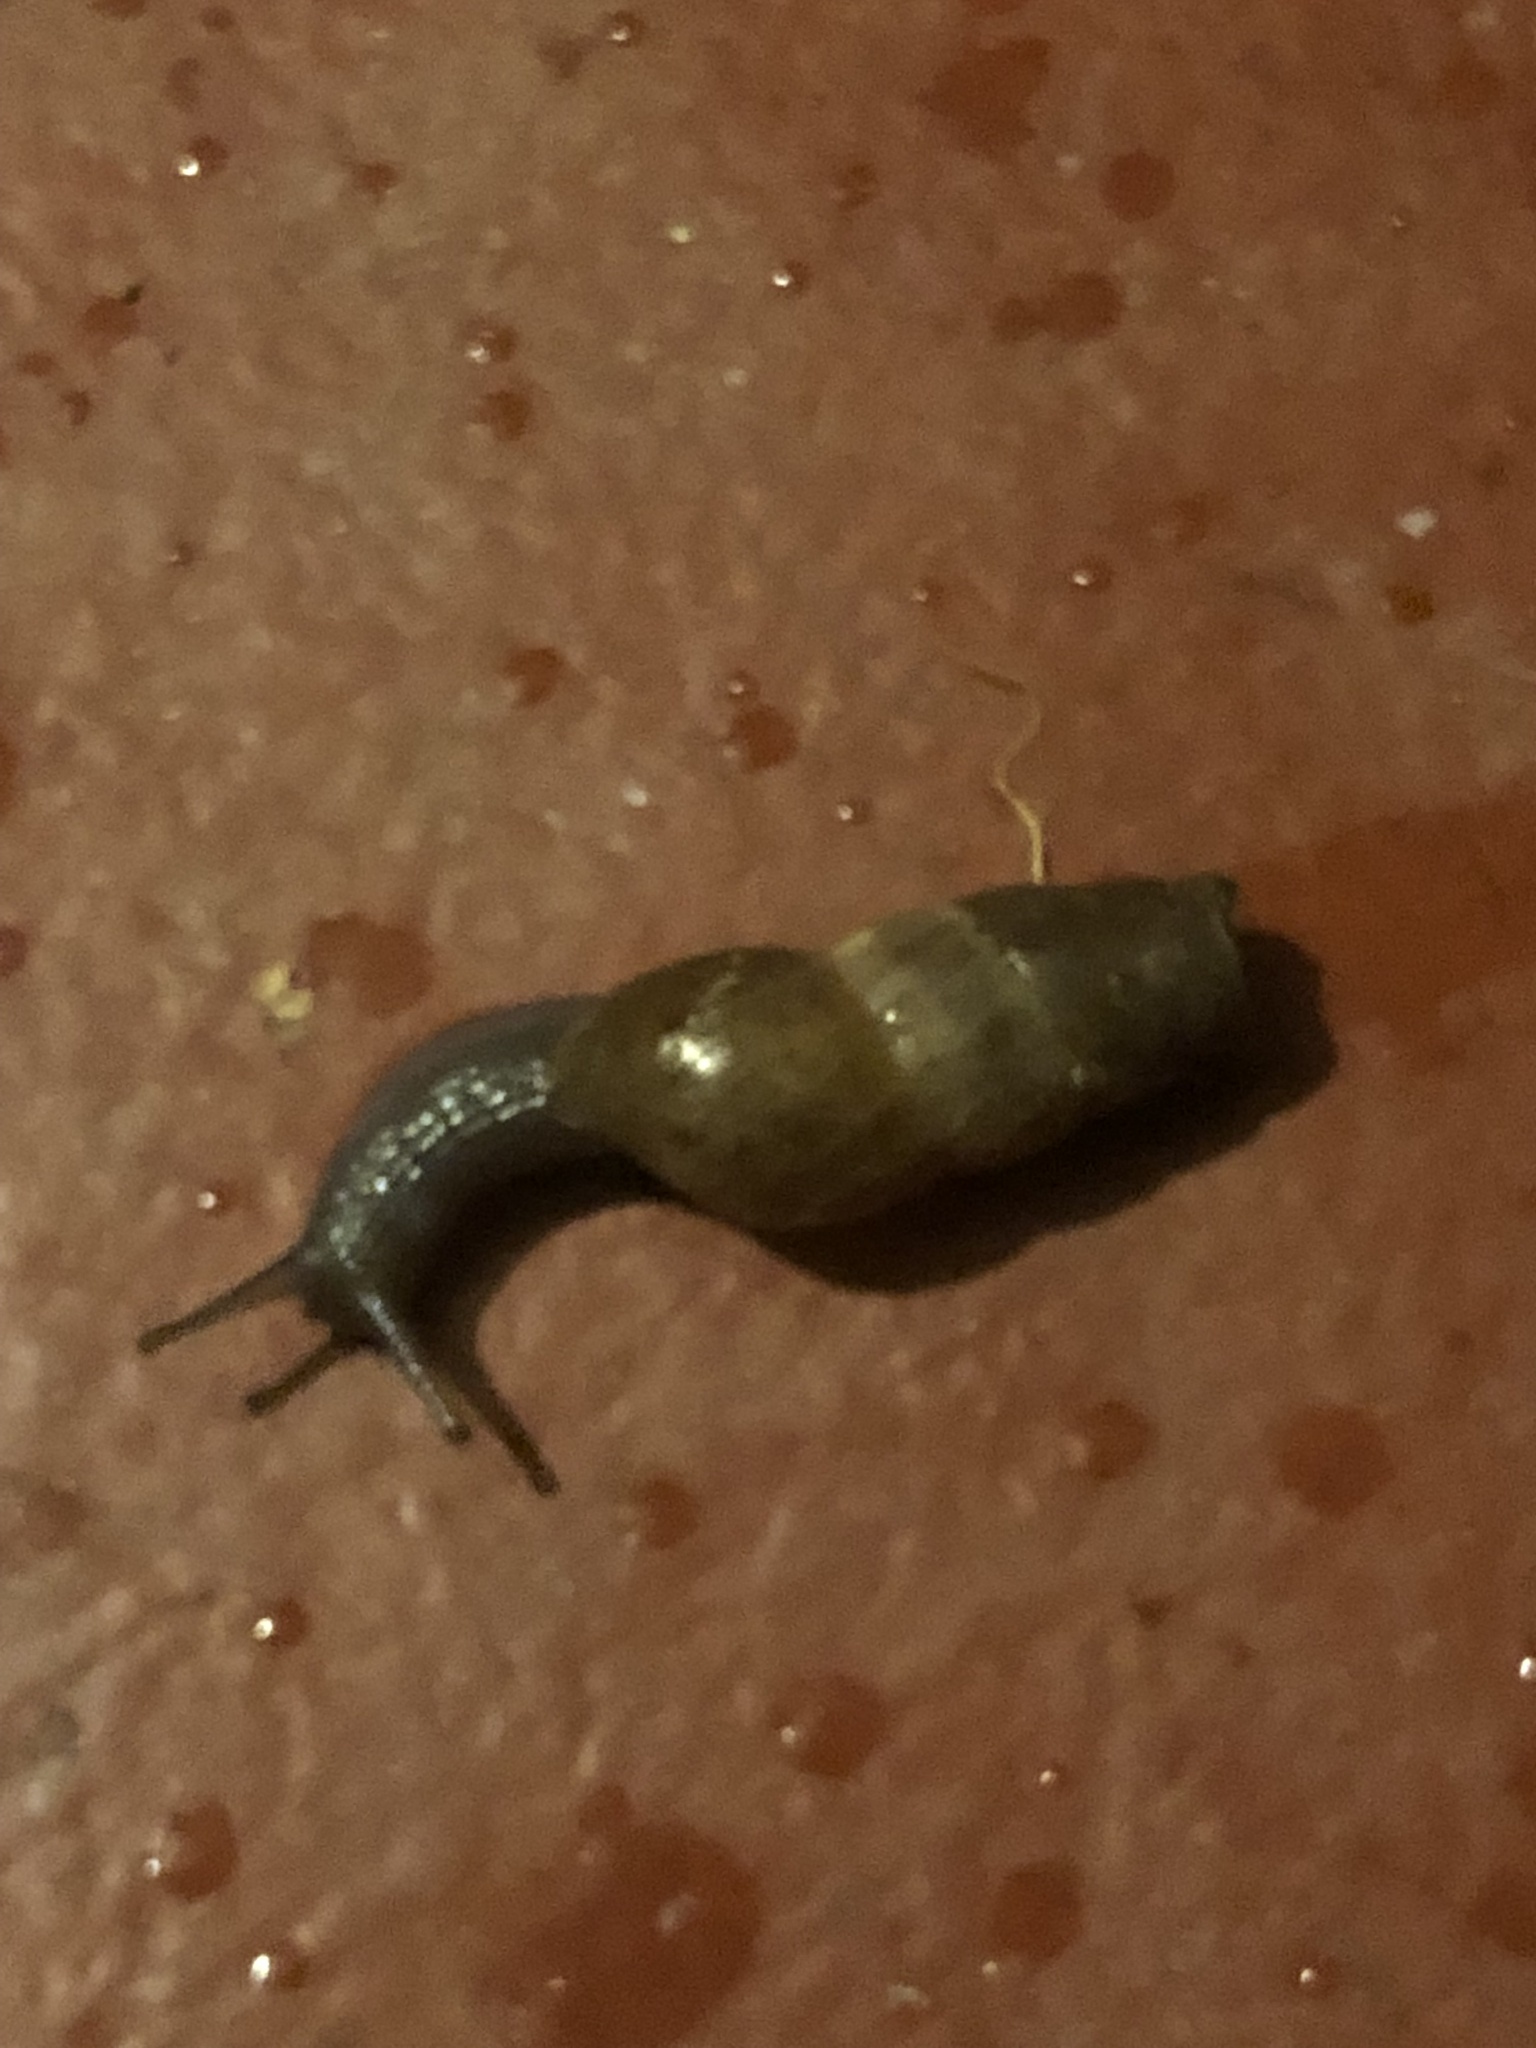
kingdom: Animalia
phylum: Mollusca
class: Gastropoda
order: Stylommatophora
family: Achatinidae
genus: Rumina
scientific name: Rumina decollata
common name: Decollate snail
